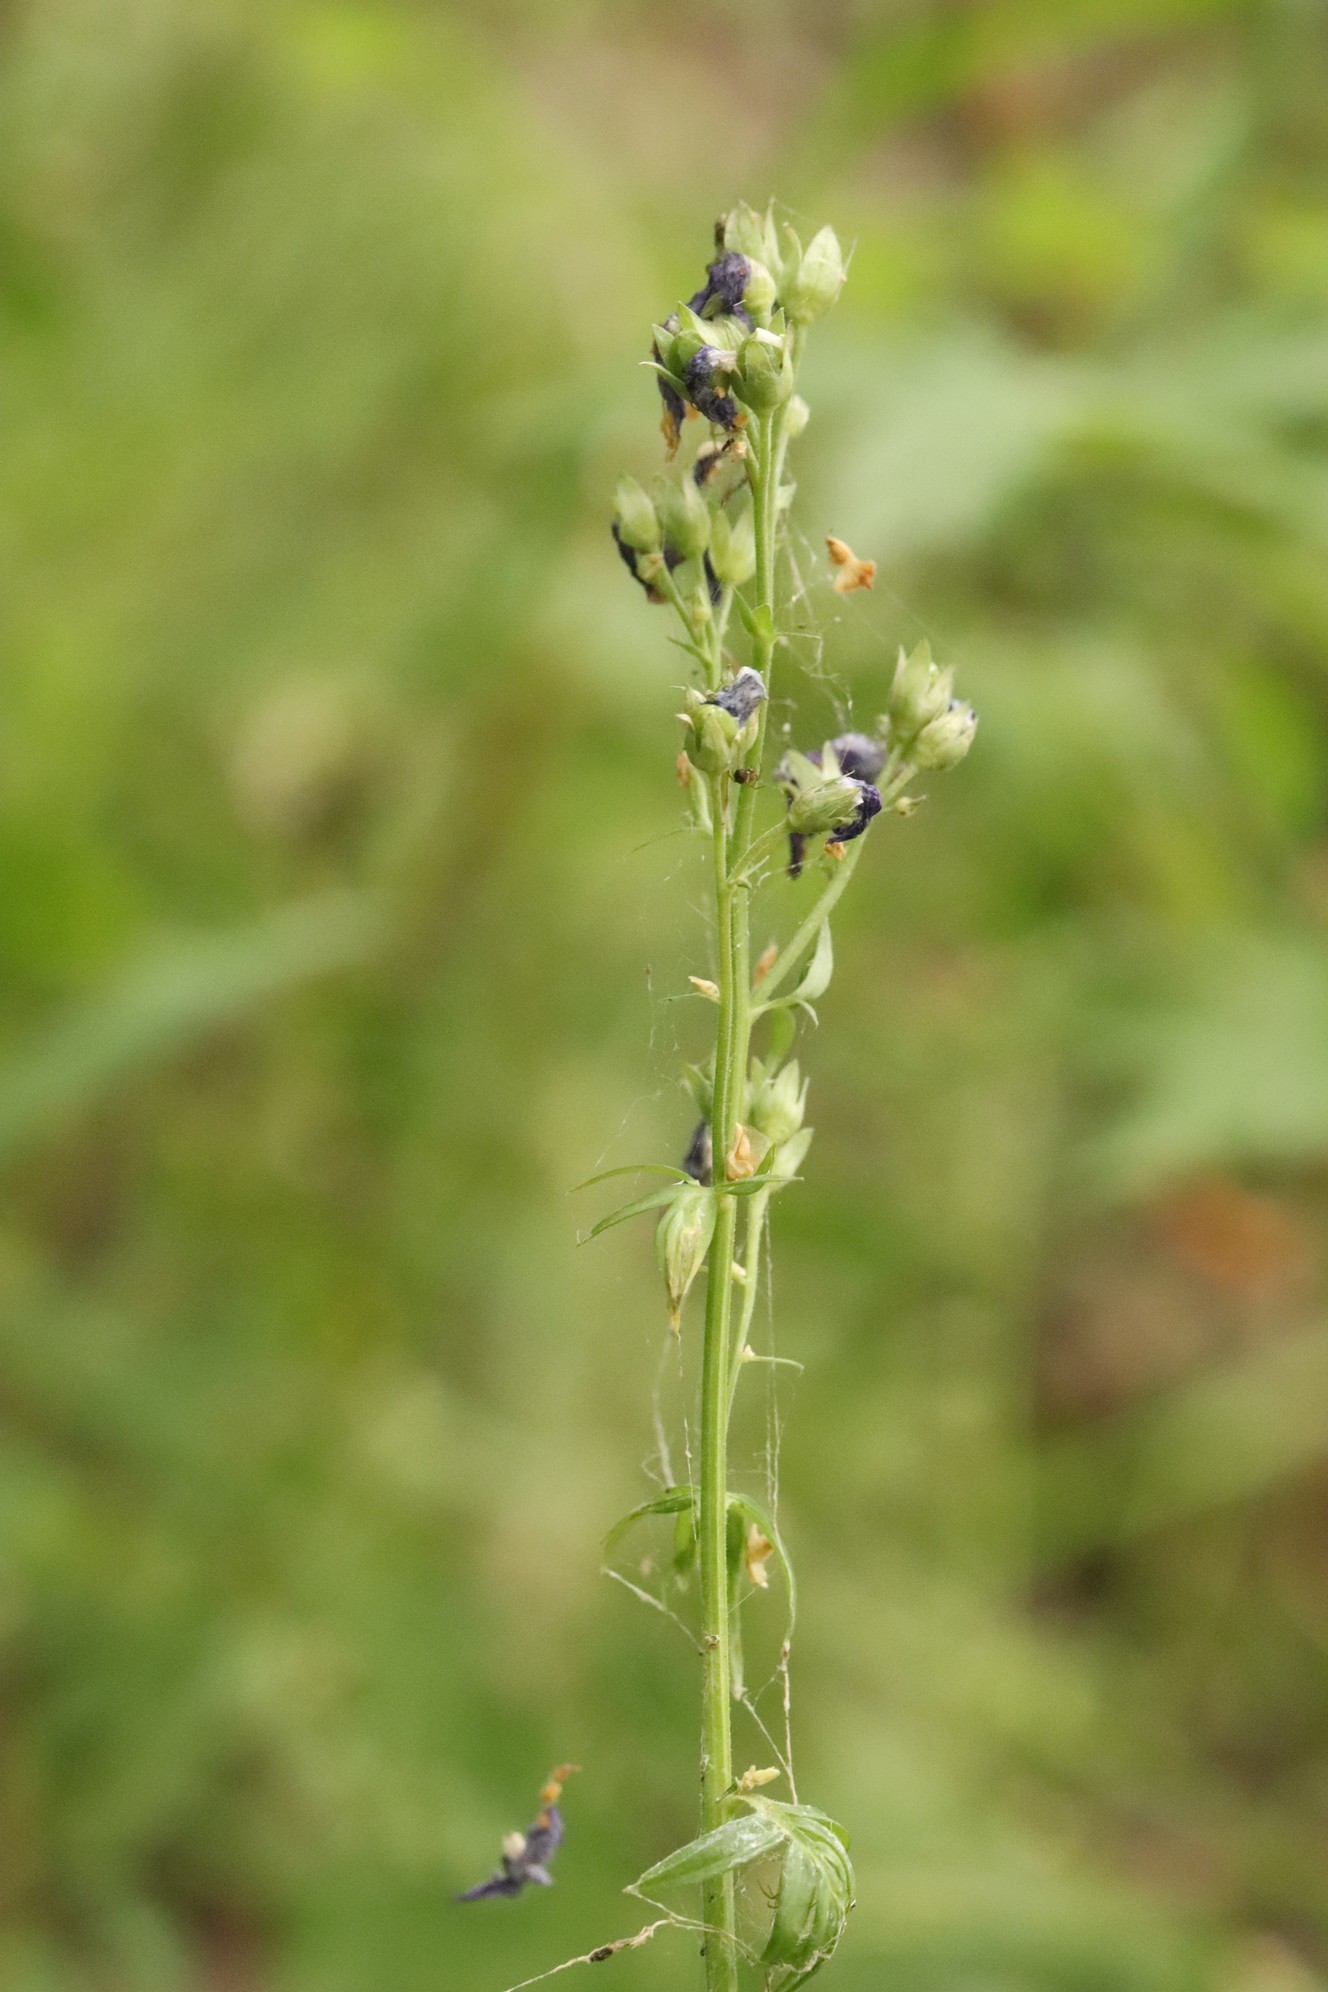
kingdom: Plantae
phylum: Tracheophyta
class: Magnoliopsida
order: Ericales
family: Polemoniaceae
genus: Polemonium
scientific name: Polemonium caeruleum
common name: Jacob's-ladder
